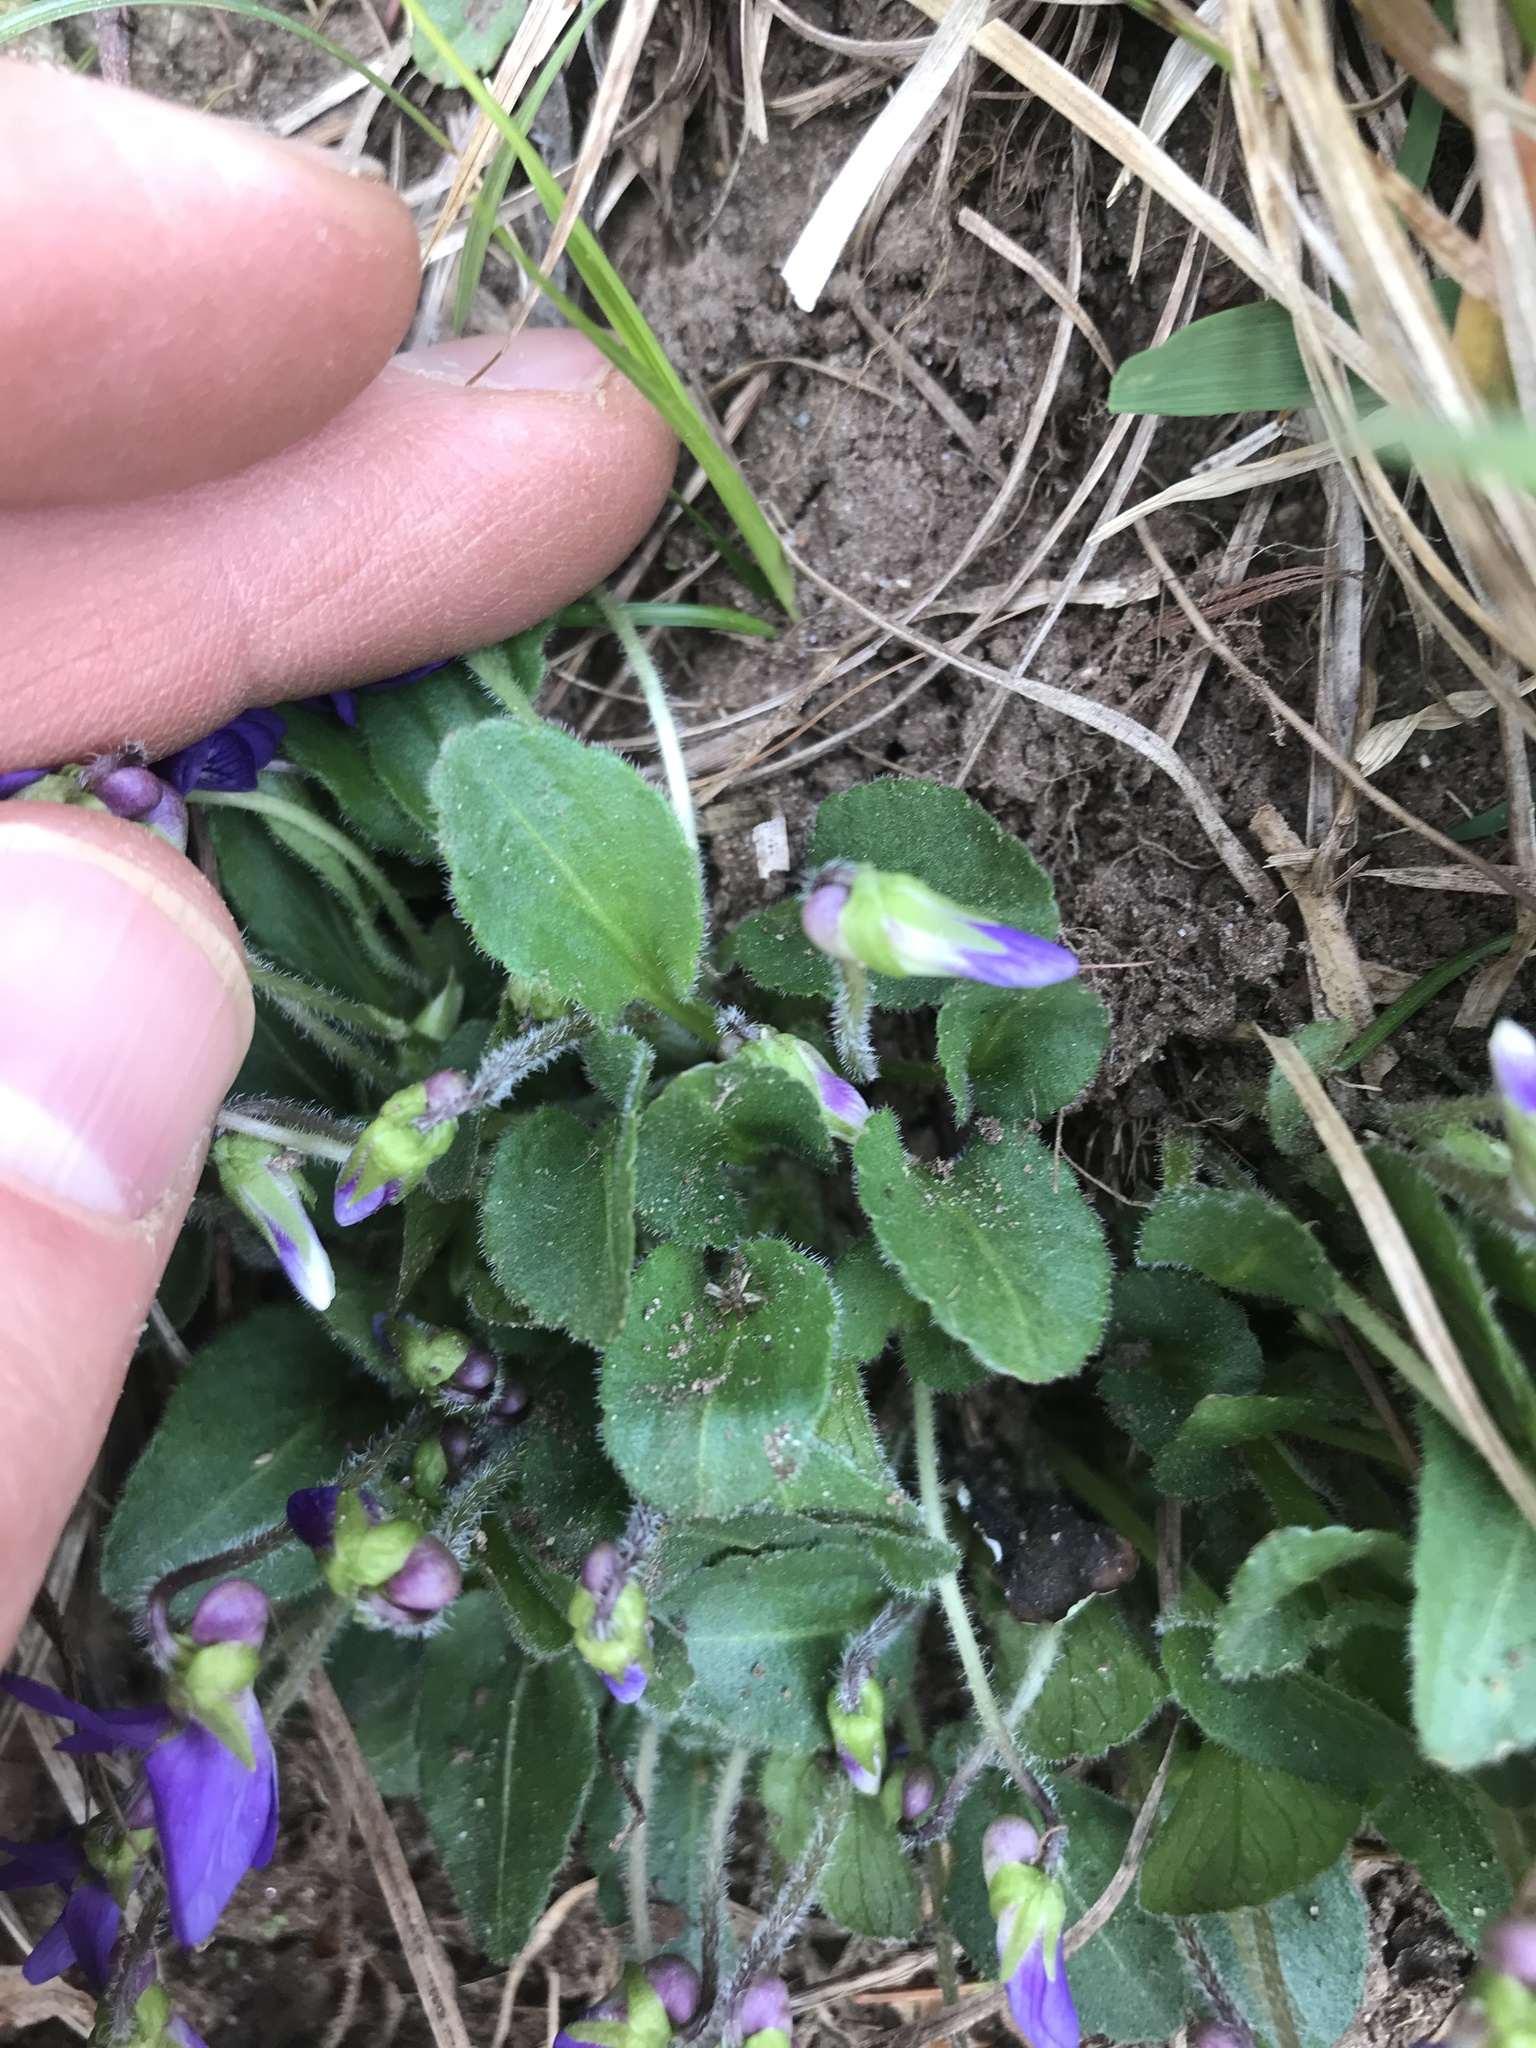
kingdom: Plantae
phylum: Tracheophyta
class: Magnoliopsida
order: Malpighiales
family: Violaceae
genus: Viola
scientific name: Viola fimbriatula
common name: Sand violet
